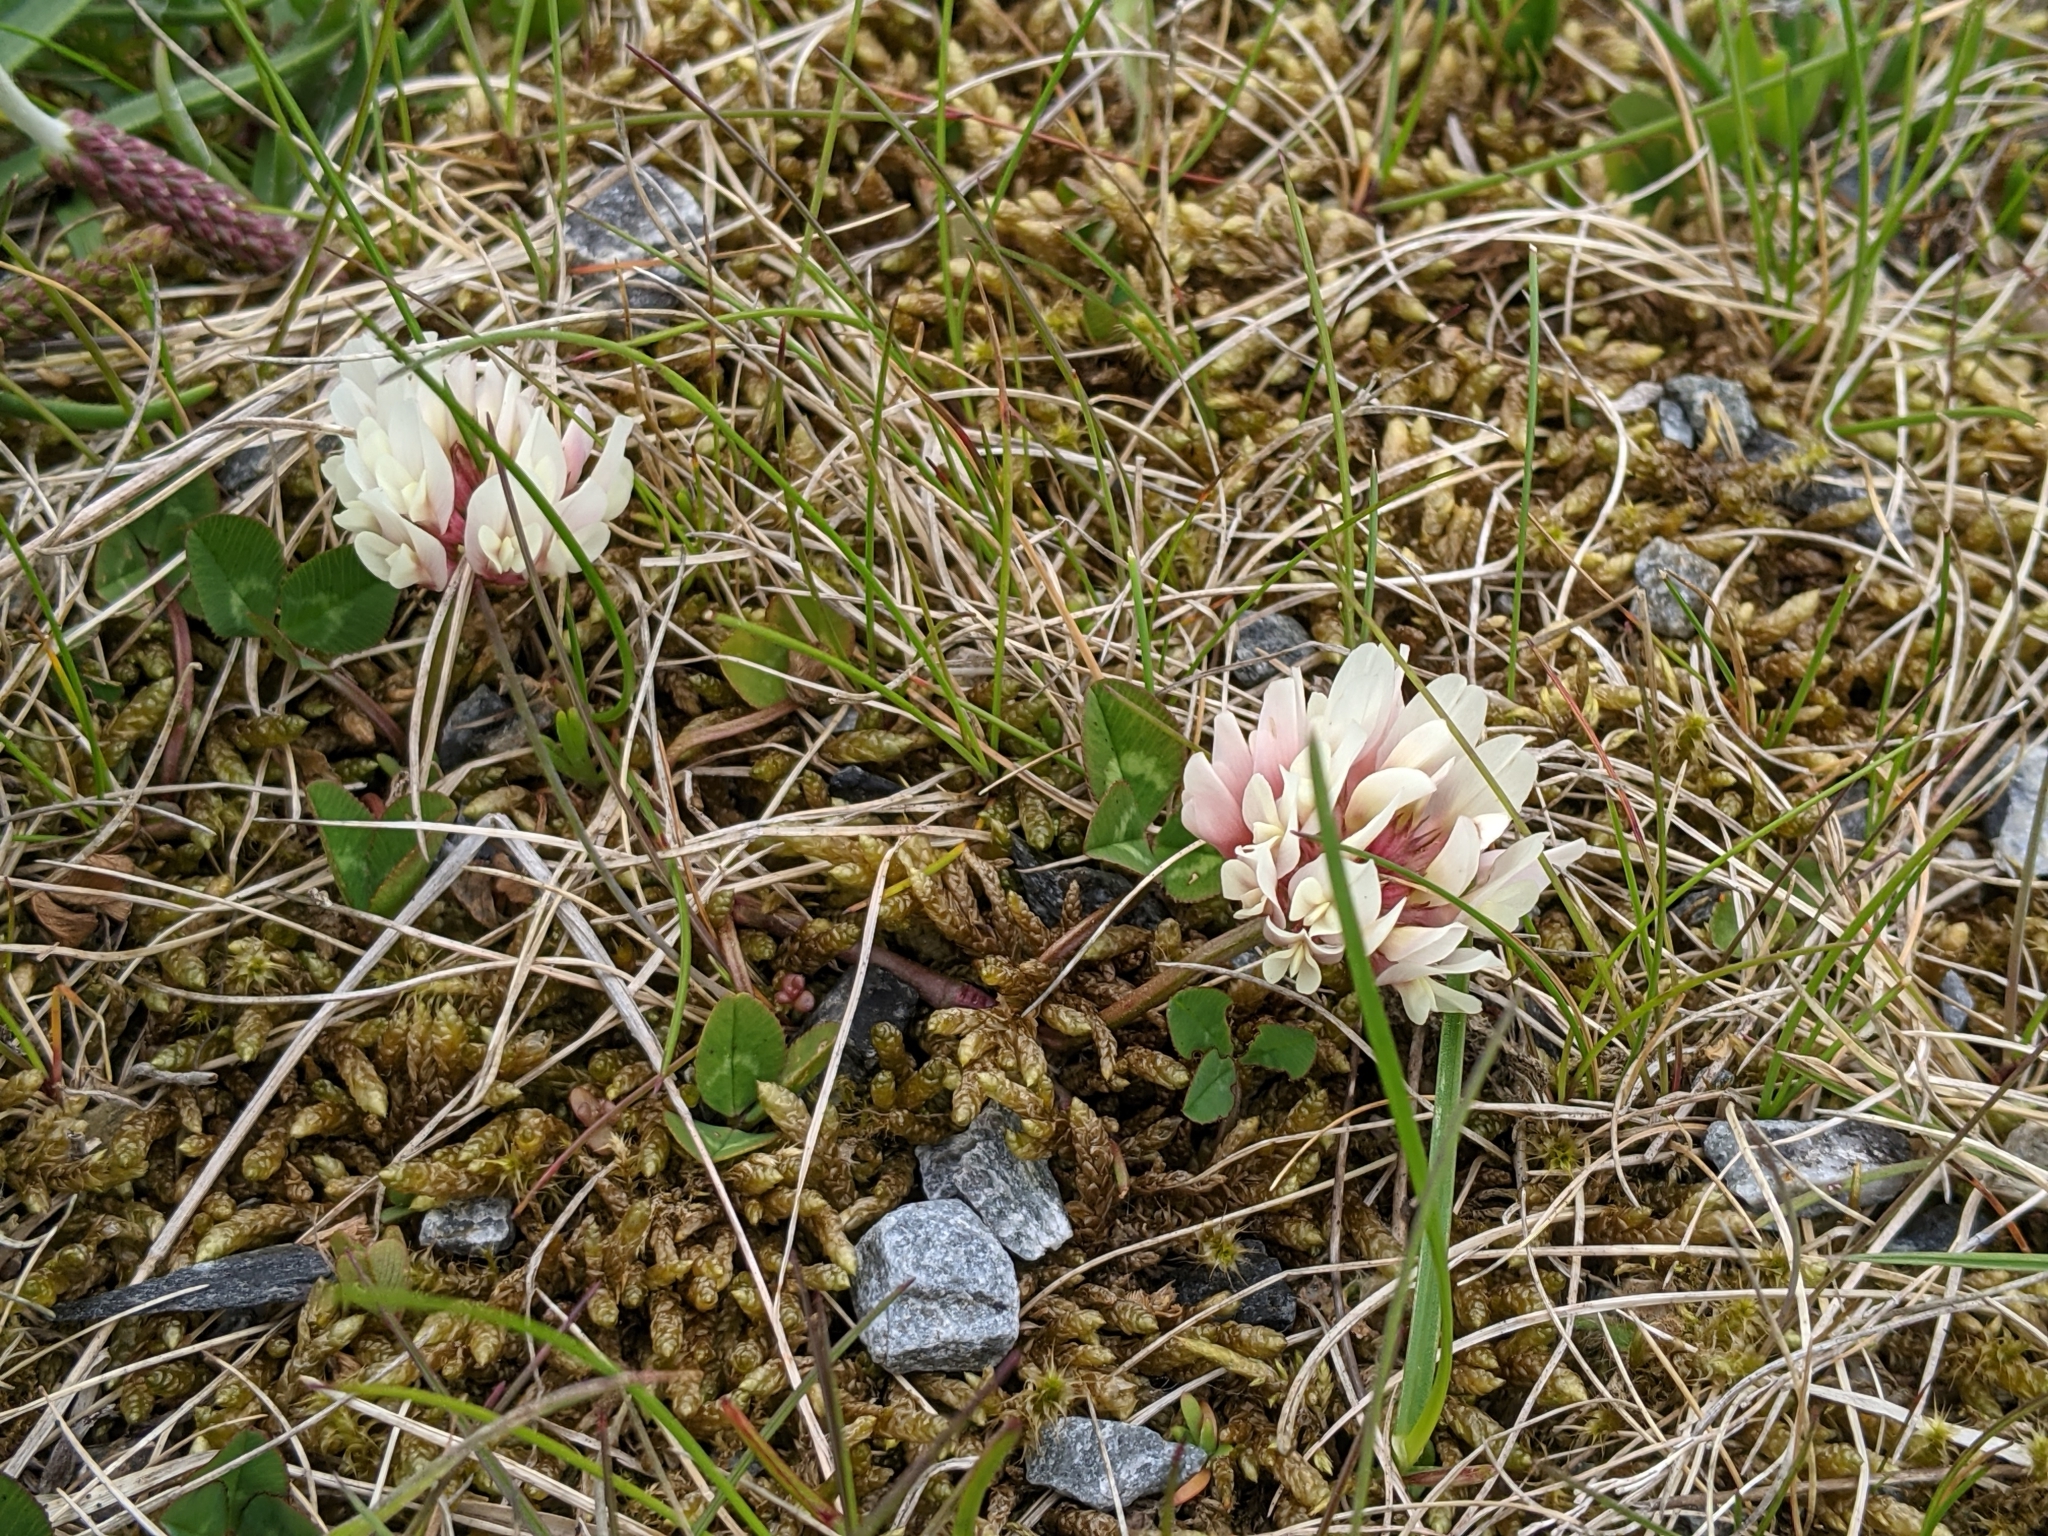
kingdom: Plantae
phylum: Tracheophyta
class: Magnoliopsida
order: Fabales
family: Fabaceae
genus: Trifolium
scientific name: Trifolium repens
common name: White clover
